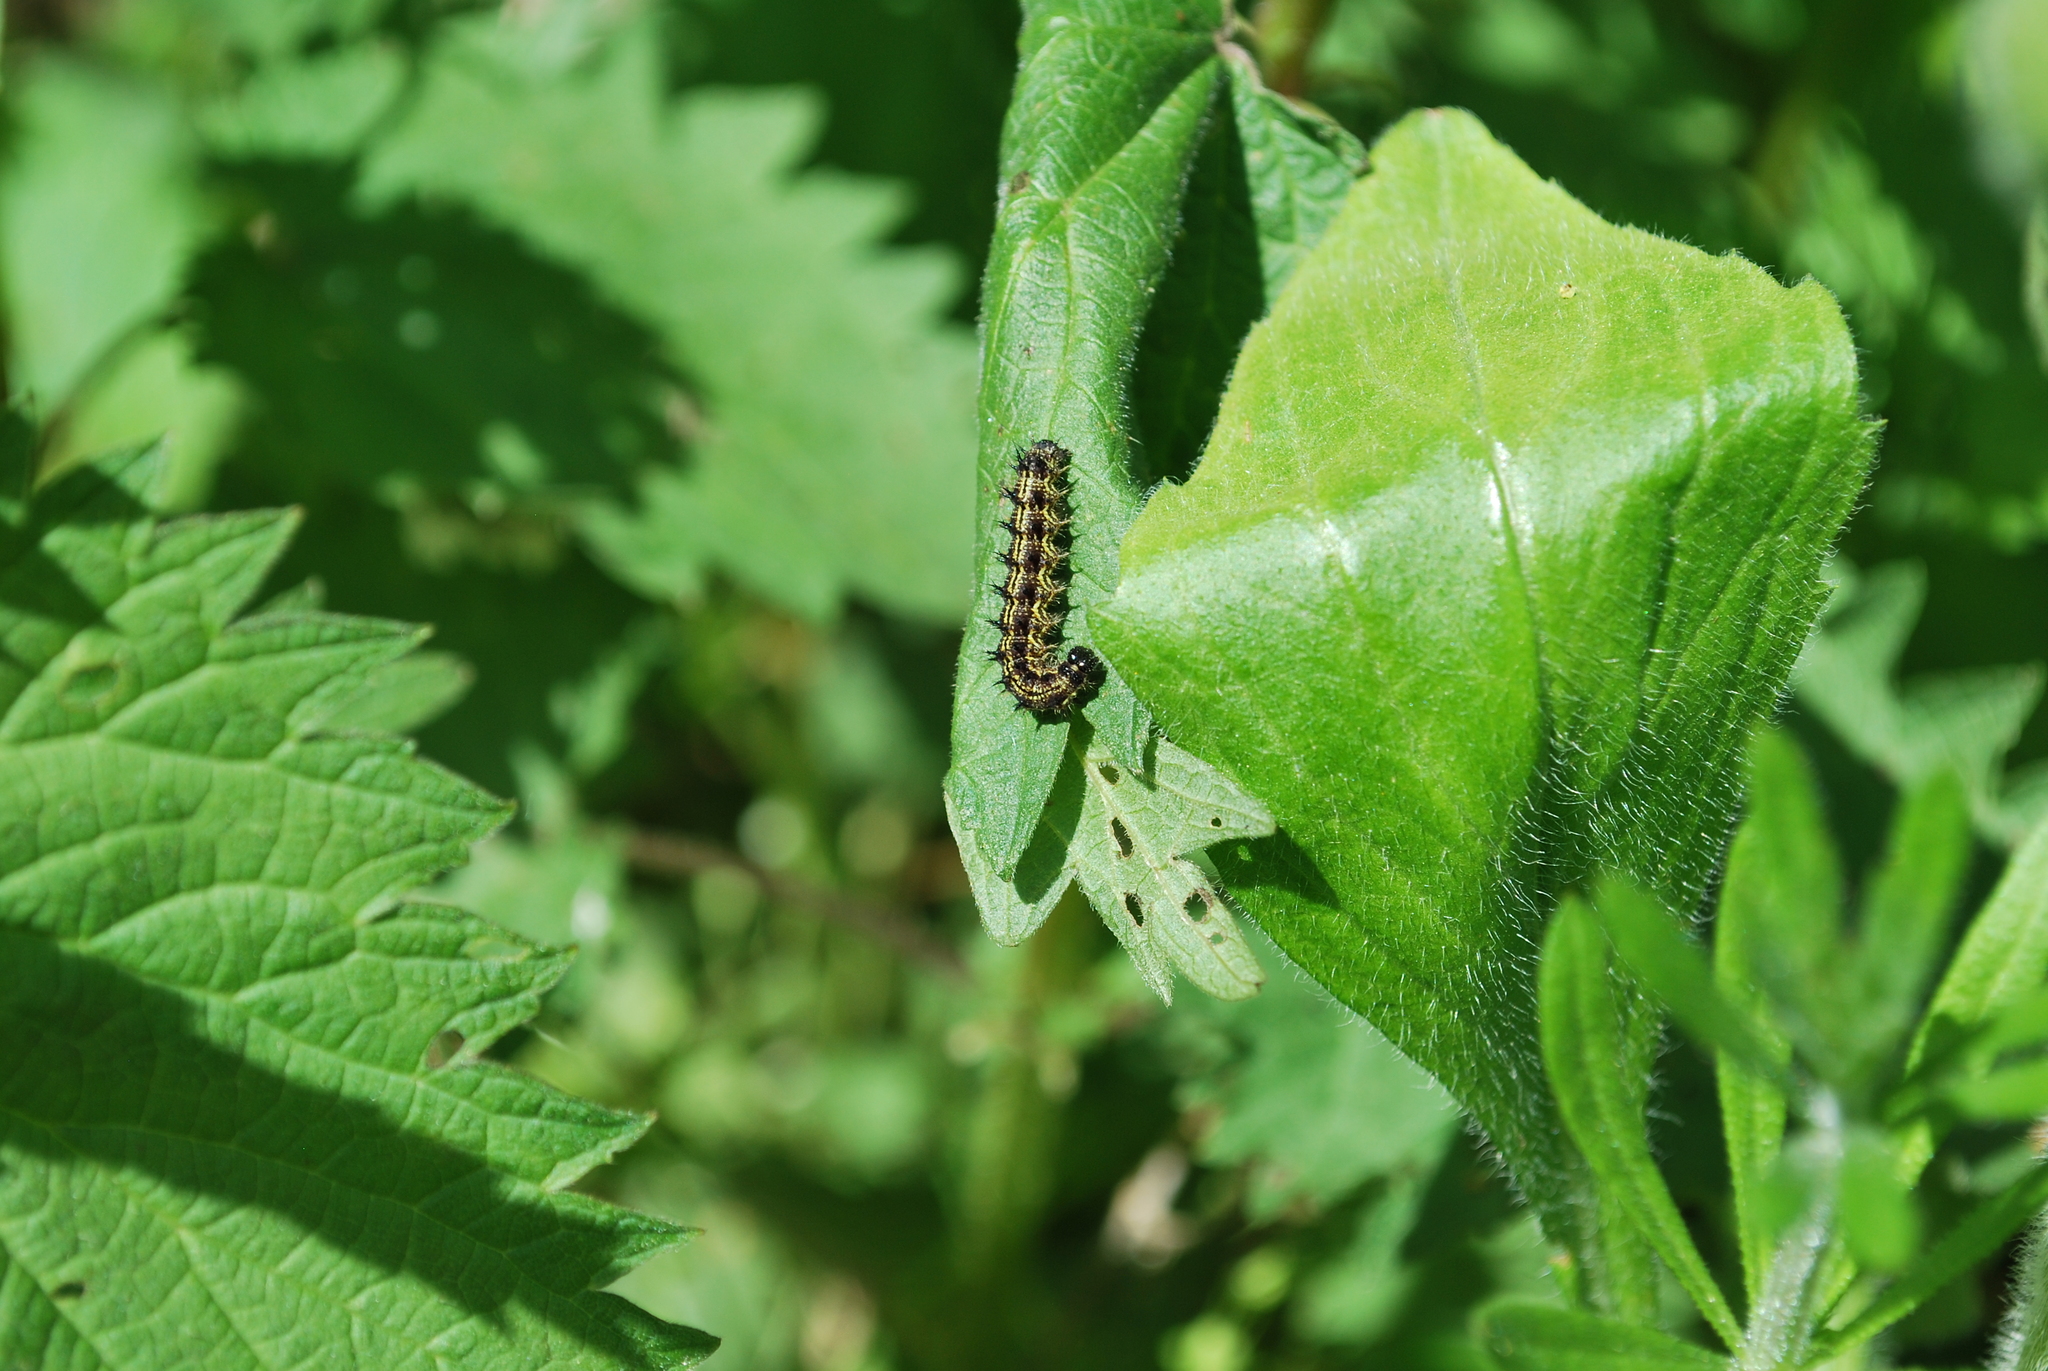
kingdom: Animalia
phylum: Arthropoda
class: Insecta
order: Lepidoptera
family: Nymphalidae
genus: Aglais
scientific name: Aglais urticae
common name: Small tortoiseshell
